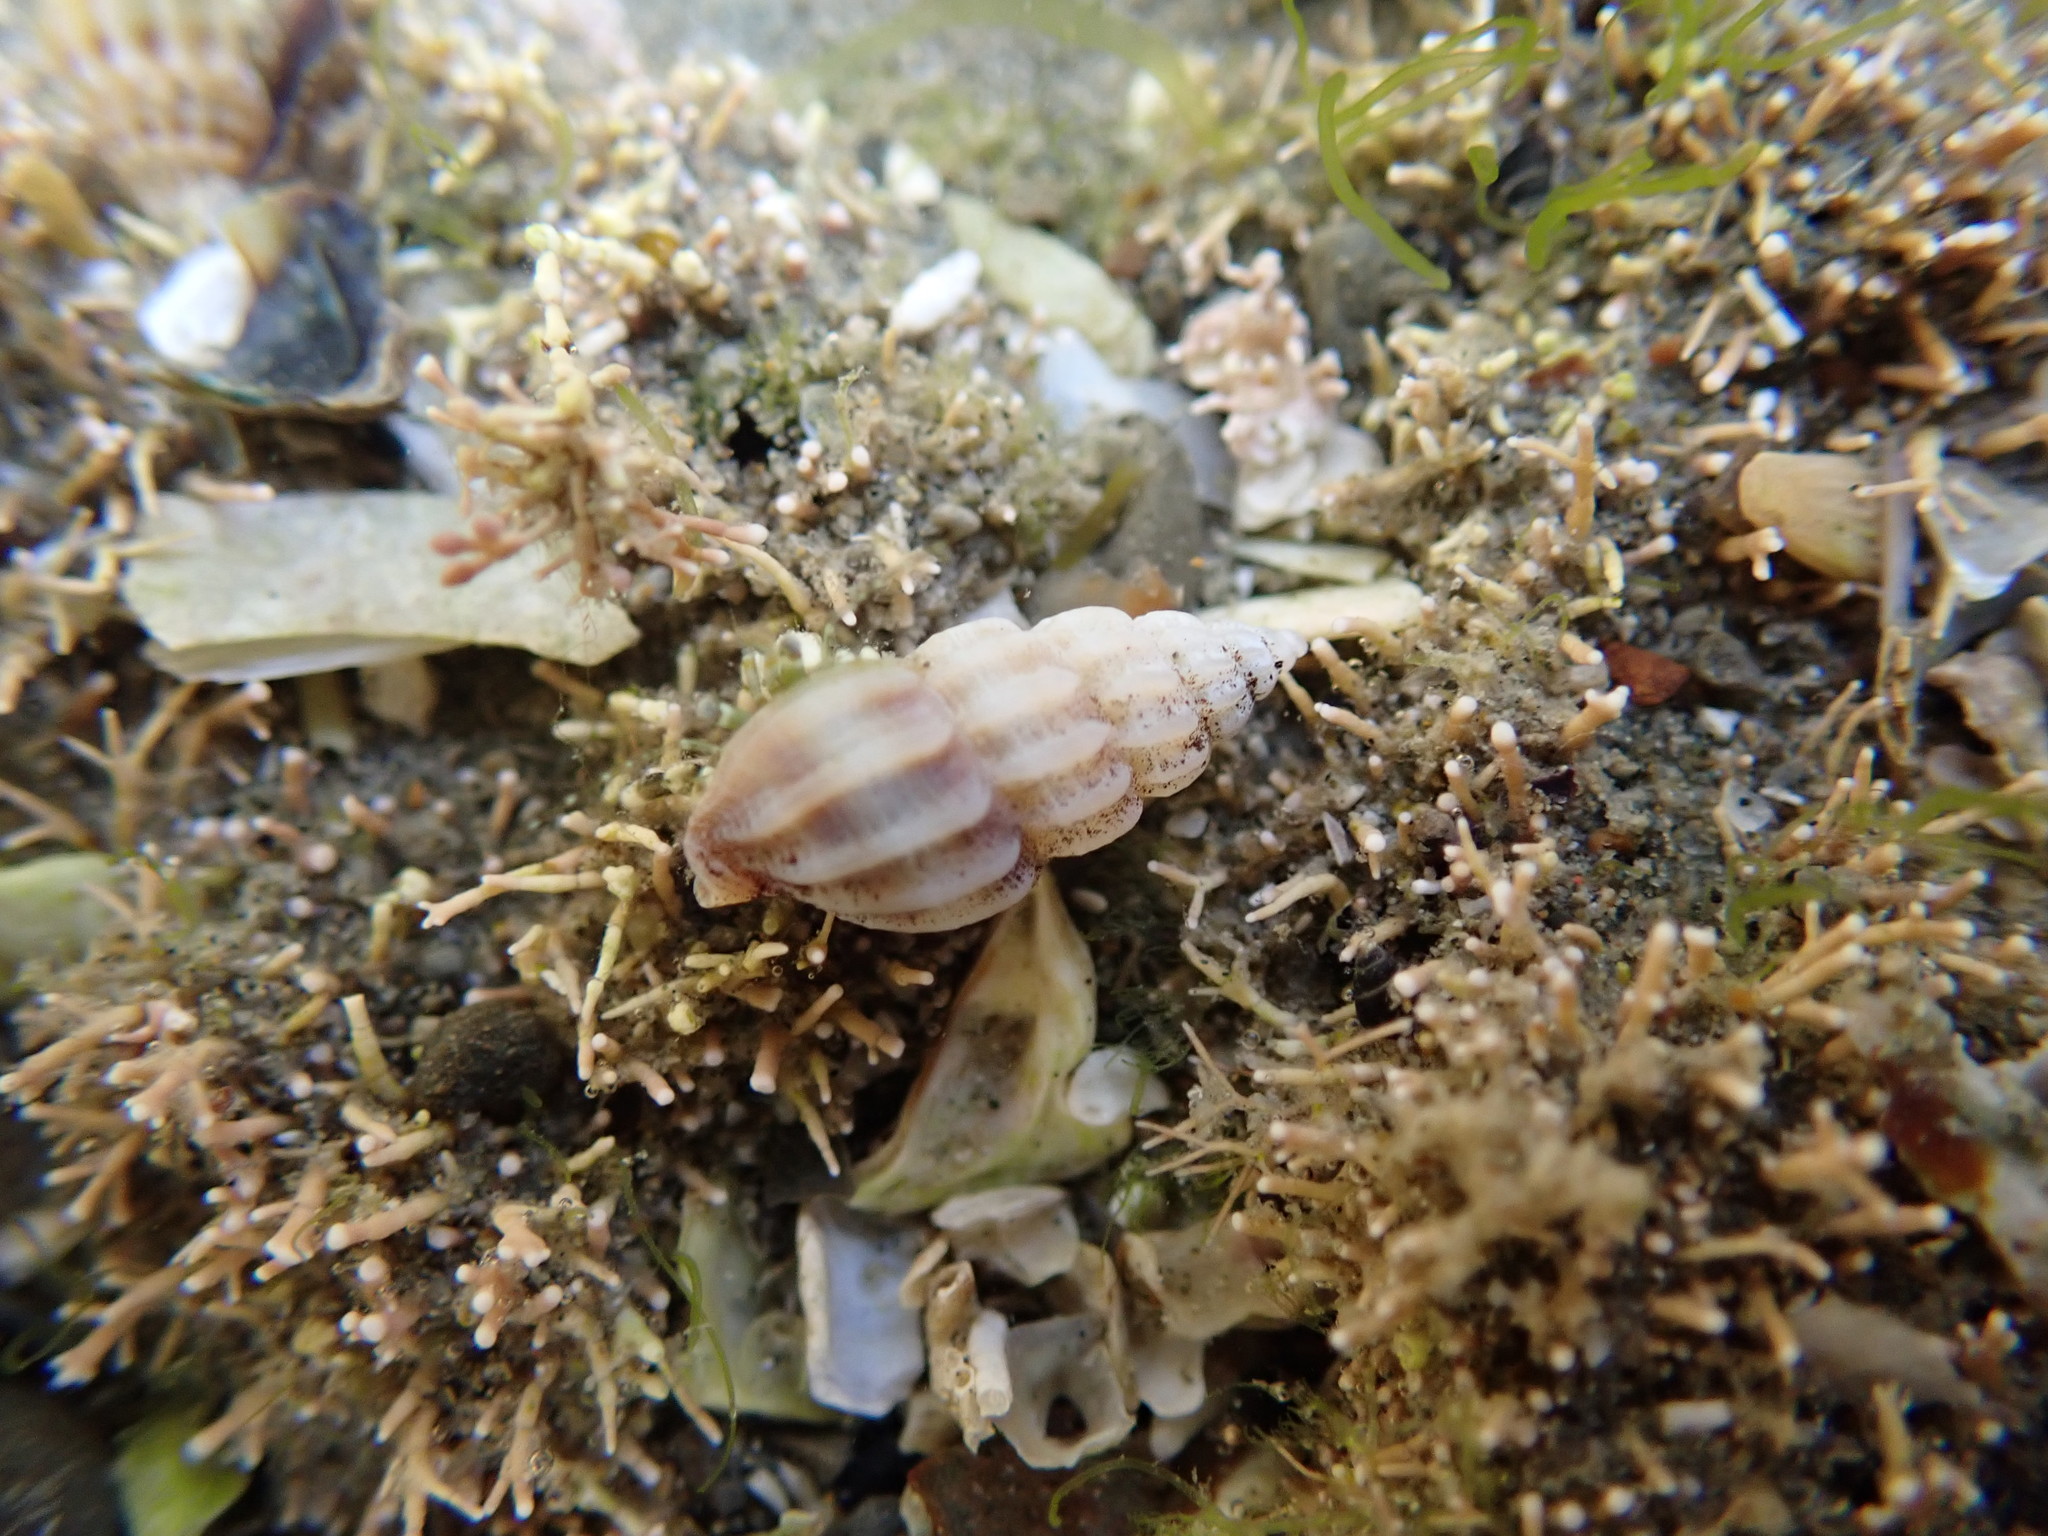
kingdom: Animalia
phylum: Mollusca
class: Gastropoda
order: Neogastropoda
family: Mangeliidae
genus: Neoguraleus
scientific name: Neoguraleus interruptus
